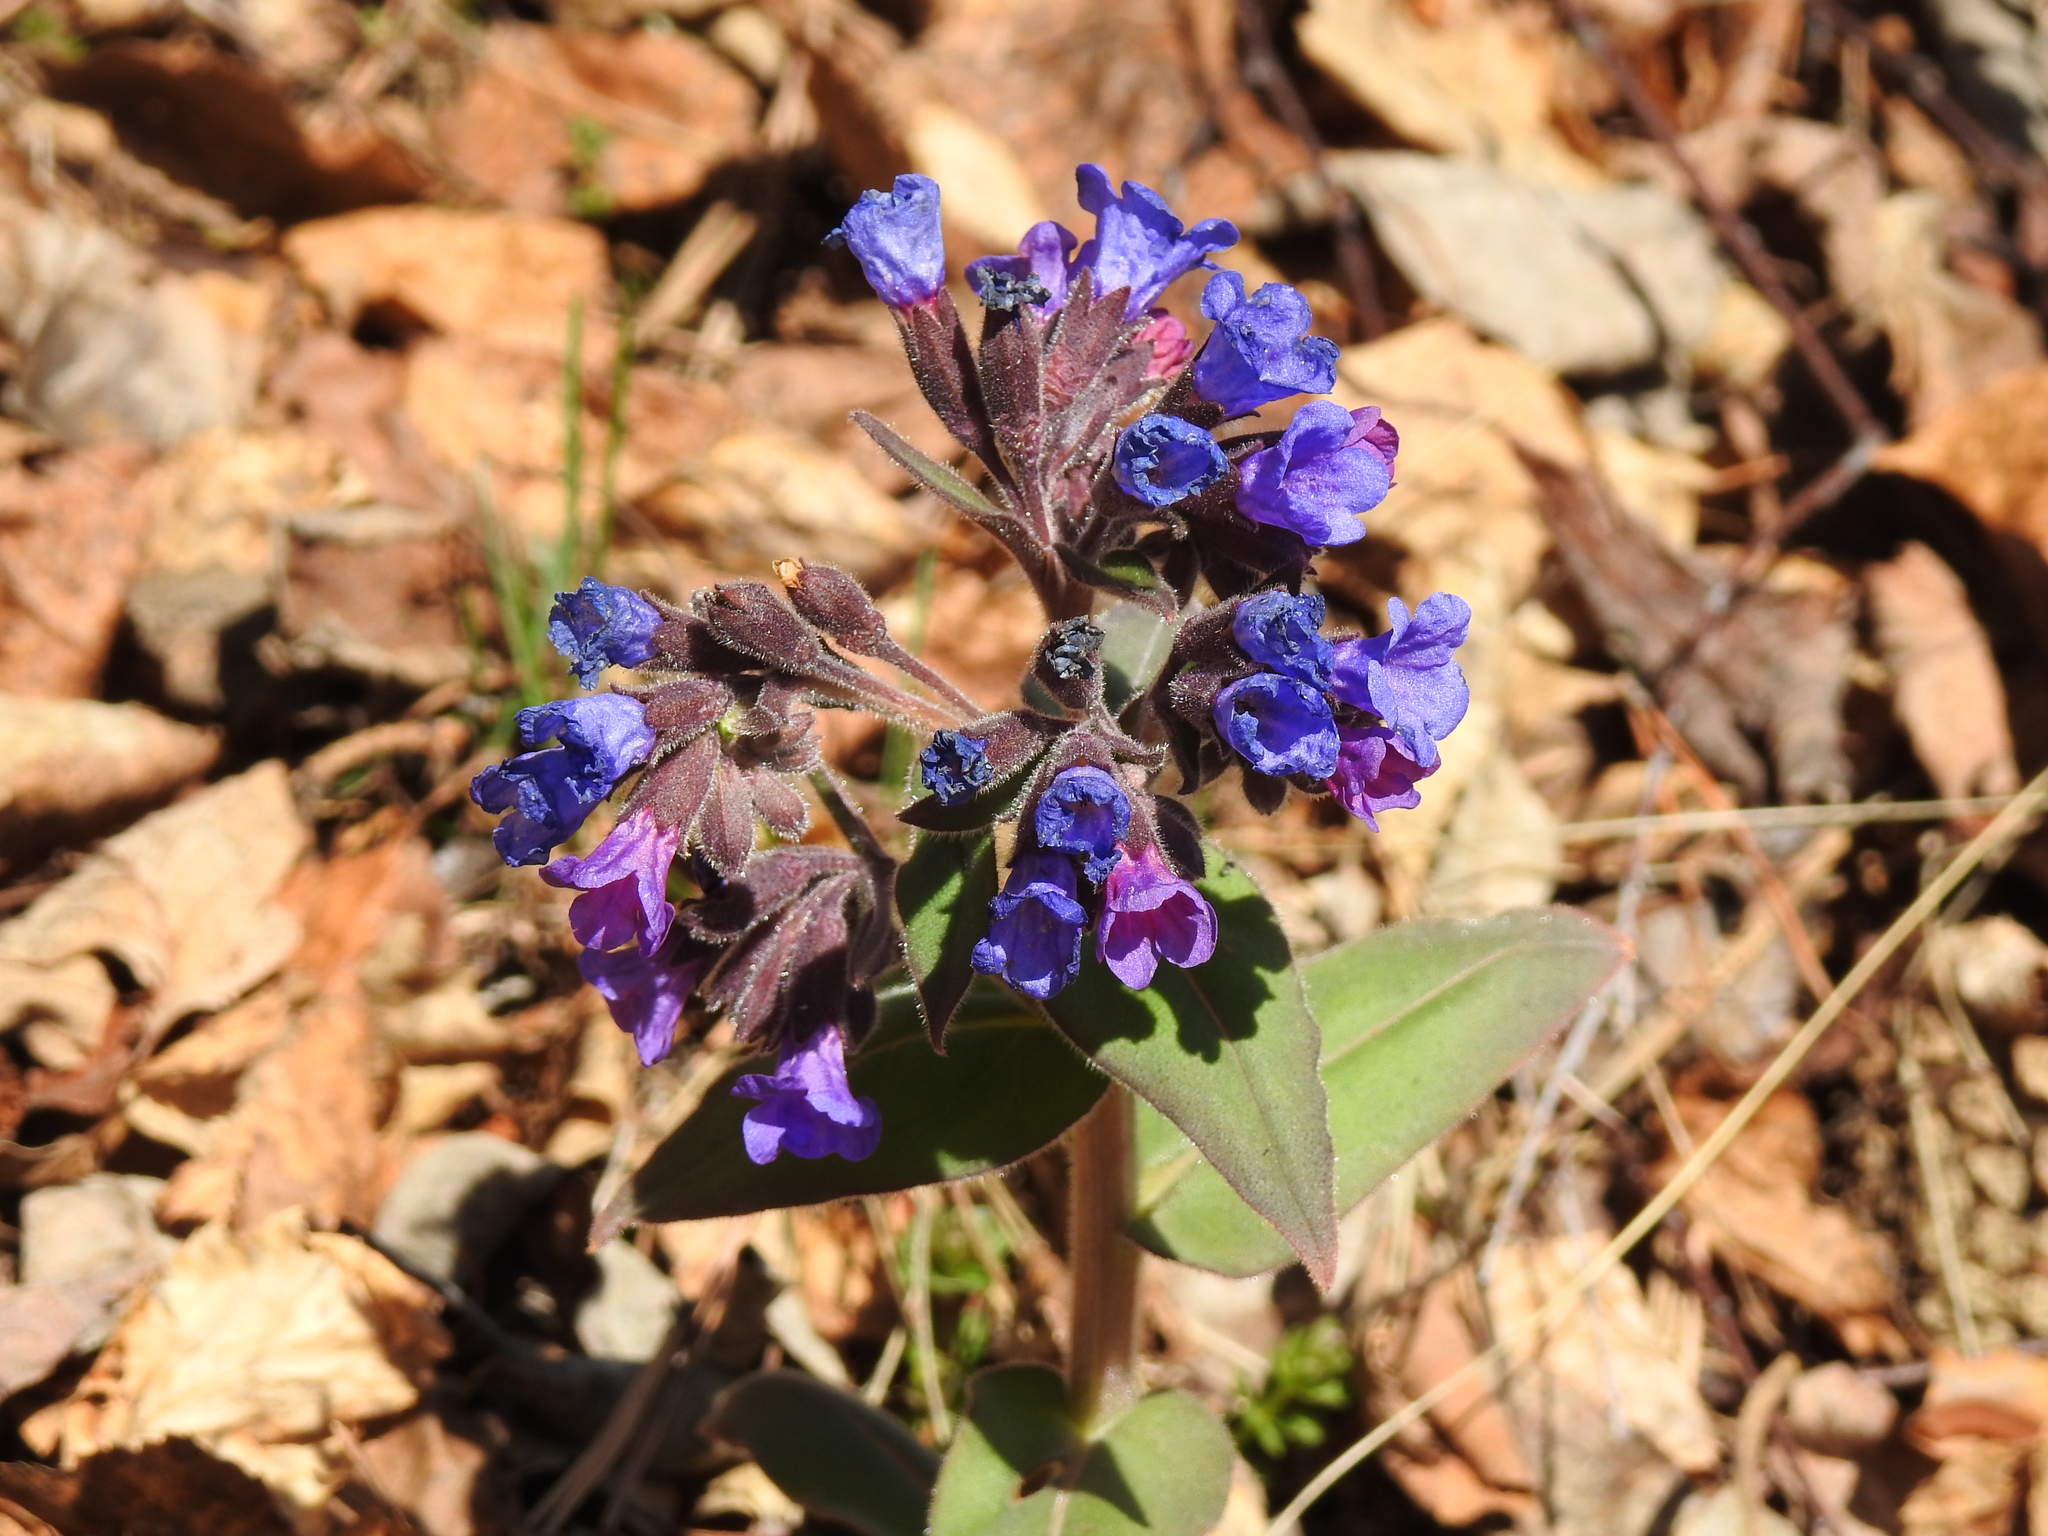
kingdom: Plantae
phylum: Tracheophyta
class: Magnoliopsida
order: Boraginales
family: Boraginaceae
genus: Pulmonaria
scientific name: Pulmonaria mollis
